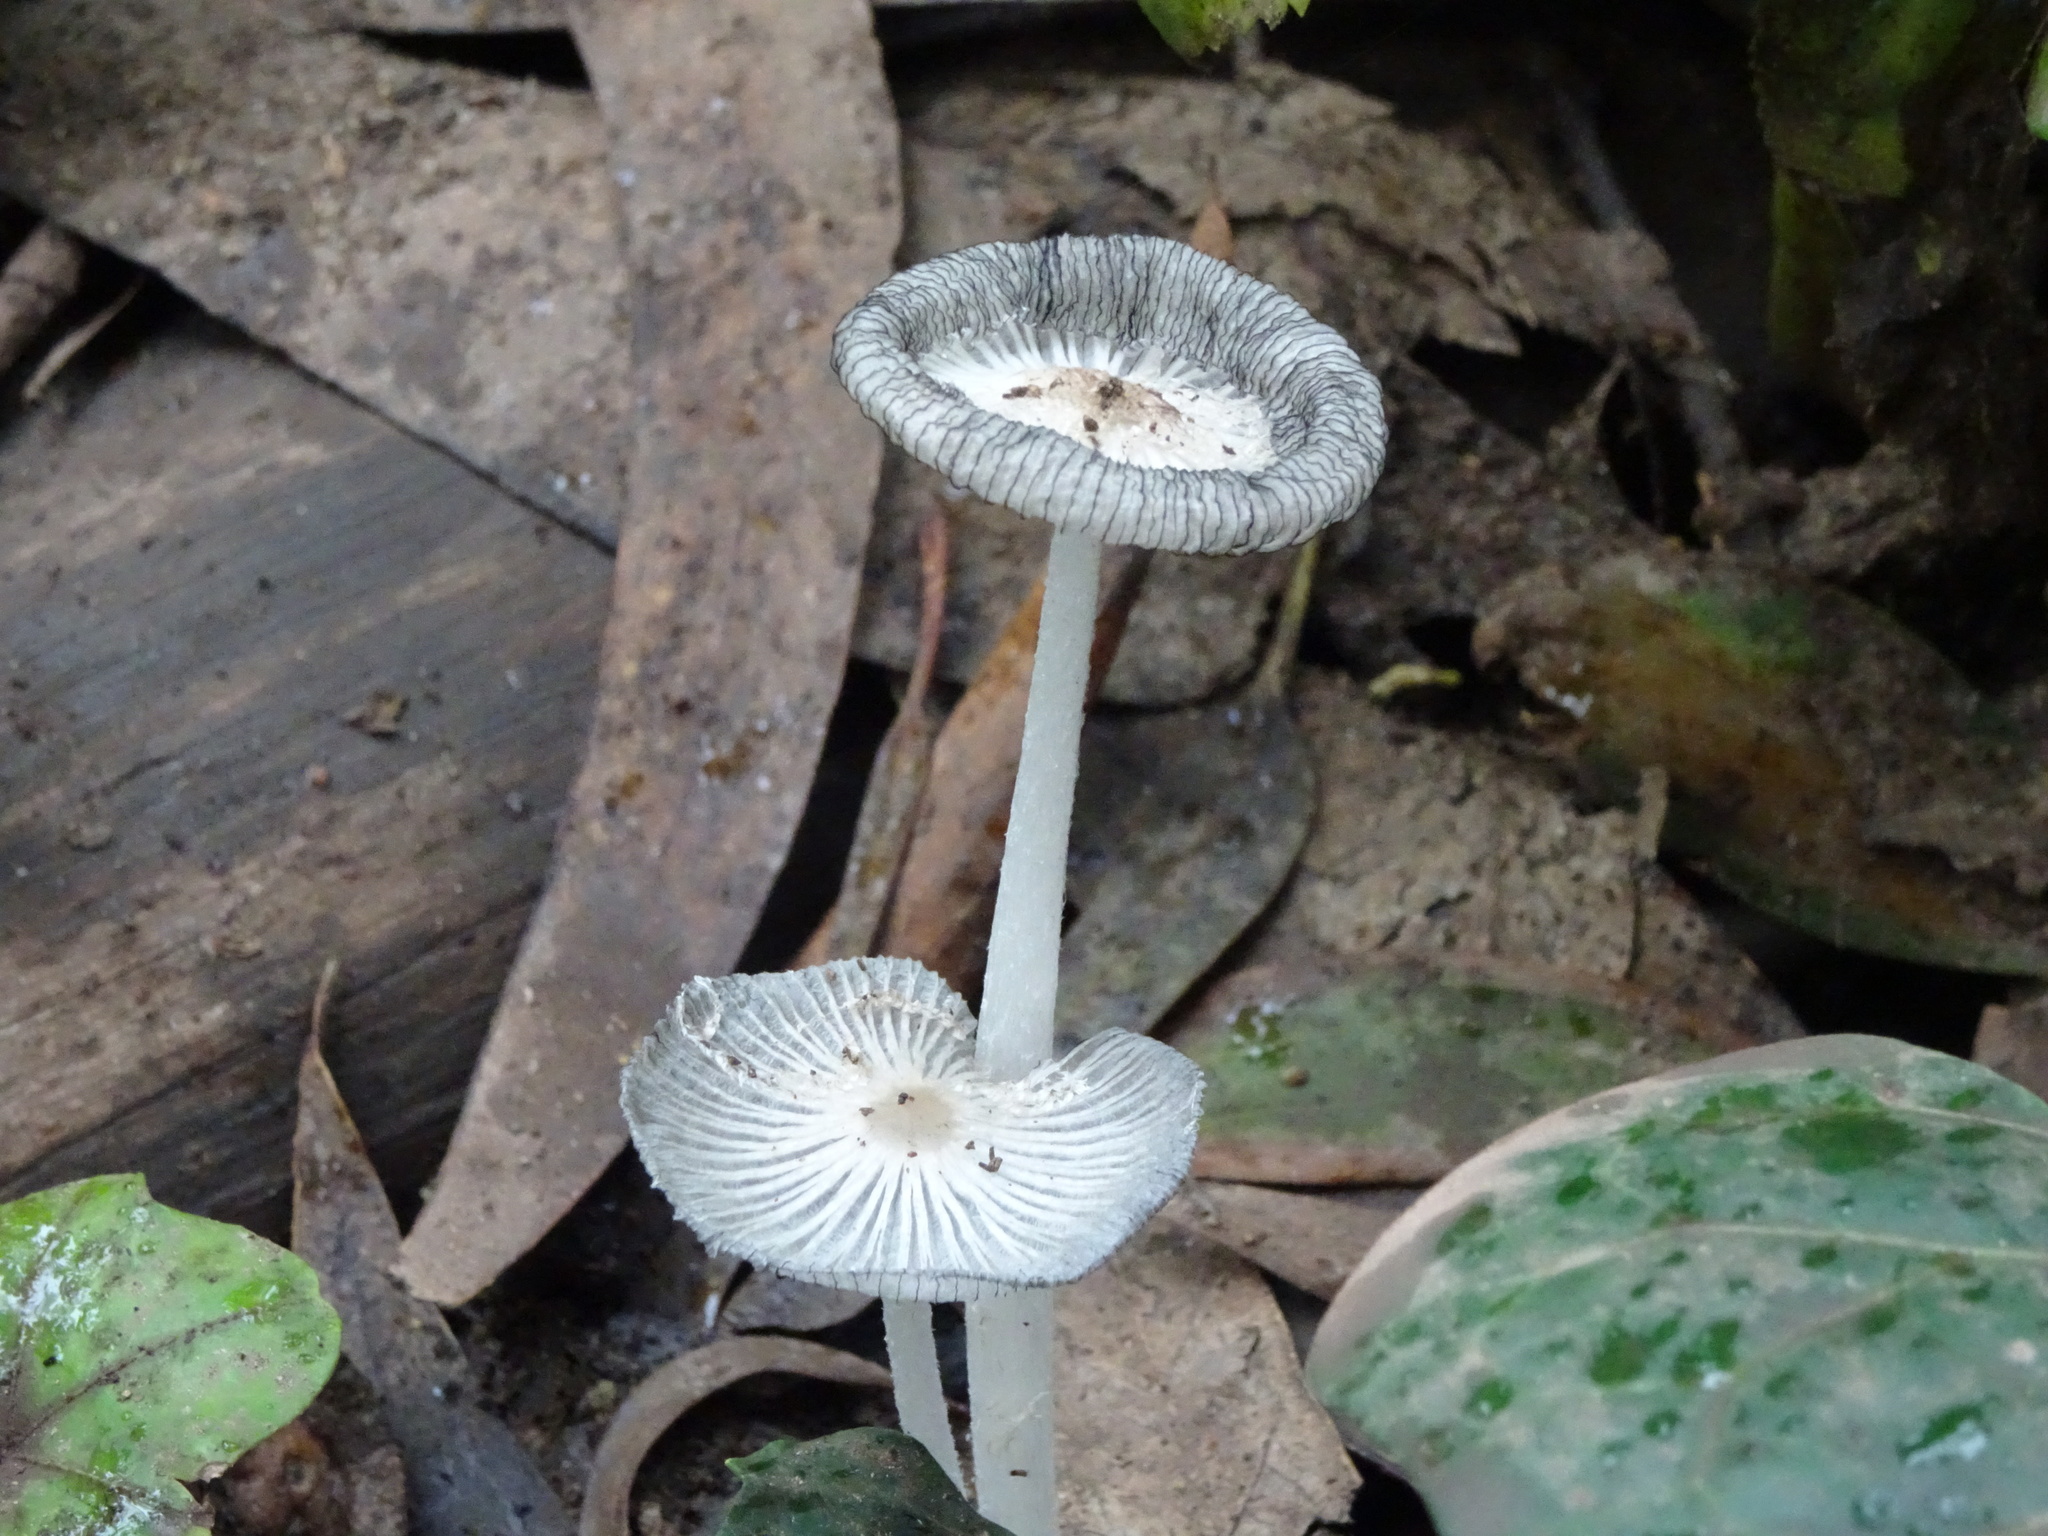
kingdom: Fungi
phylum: Basidiomycota
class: Agaricomycetes
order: Agaricales
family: Psathyrellaceae
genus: Coprinopsis
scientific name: Coprinopsis lagopus
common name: Hare'sfoot inkcap
